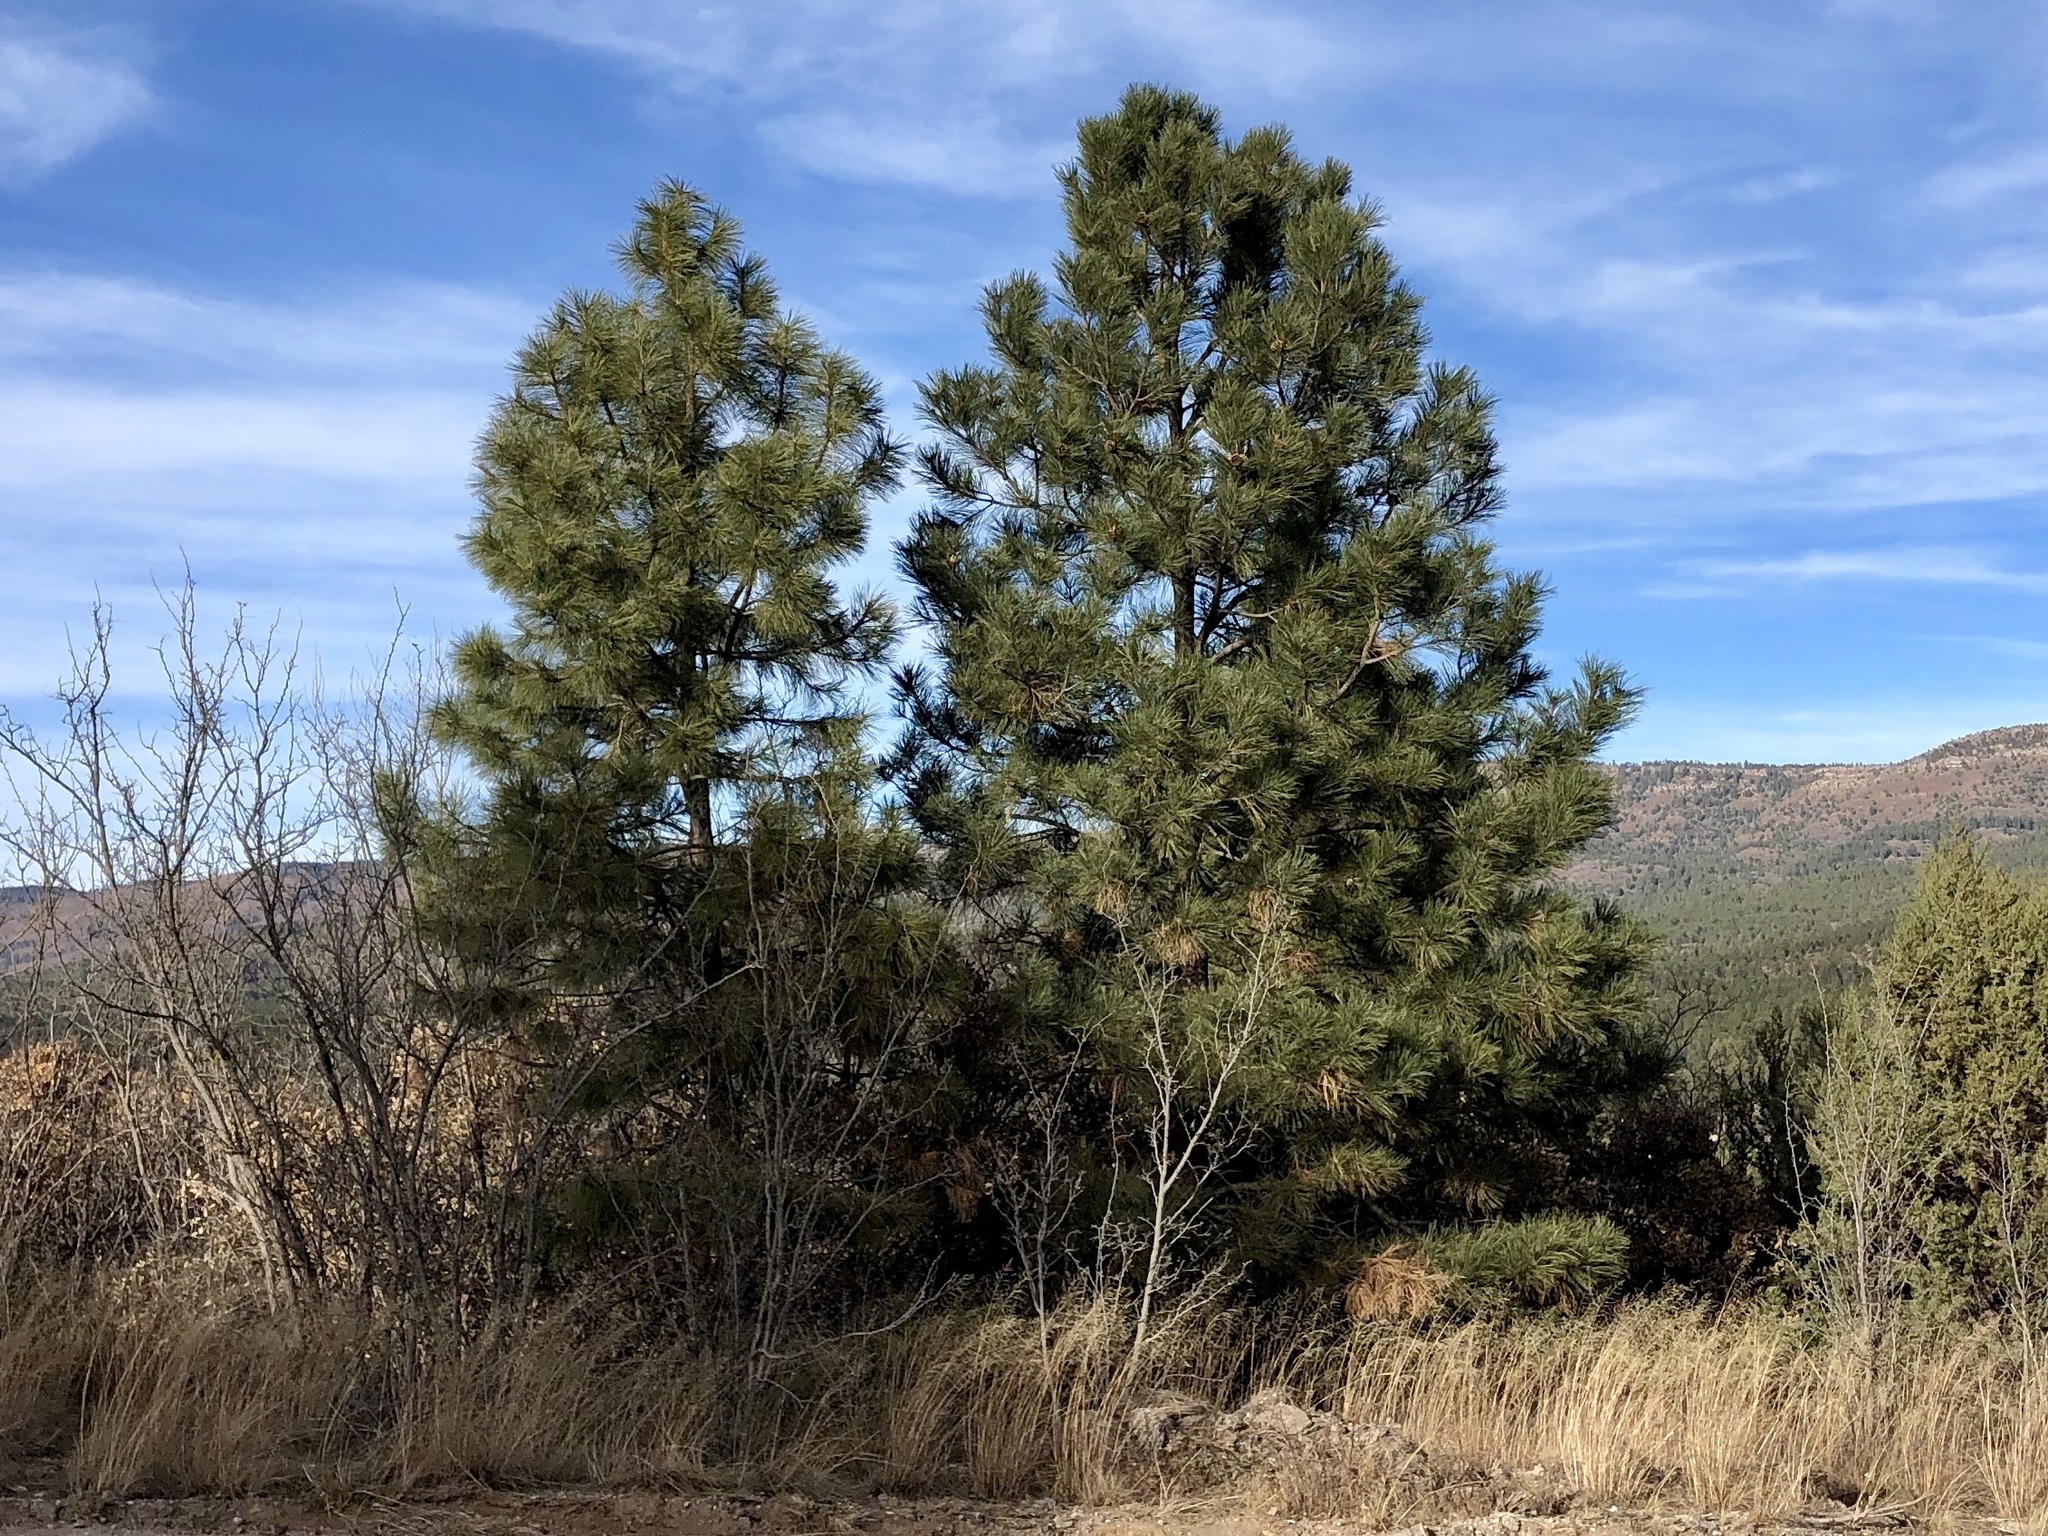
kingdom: Plantae
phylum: Tracheophyta
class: Pinopsida
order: Pinales
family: Pinaceae
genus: Pinus
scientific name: Pinus ponderosa
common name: Western yellow-pine
